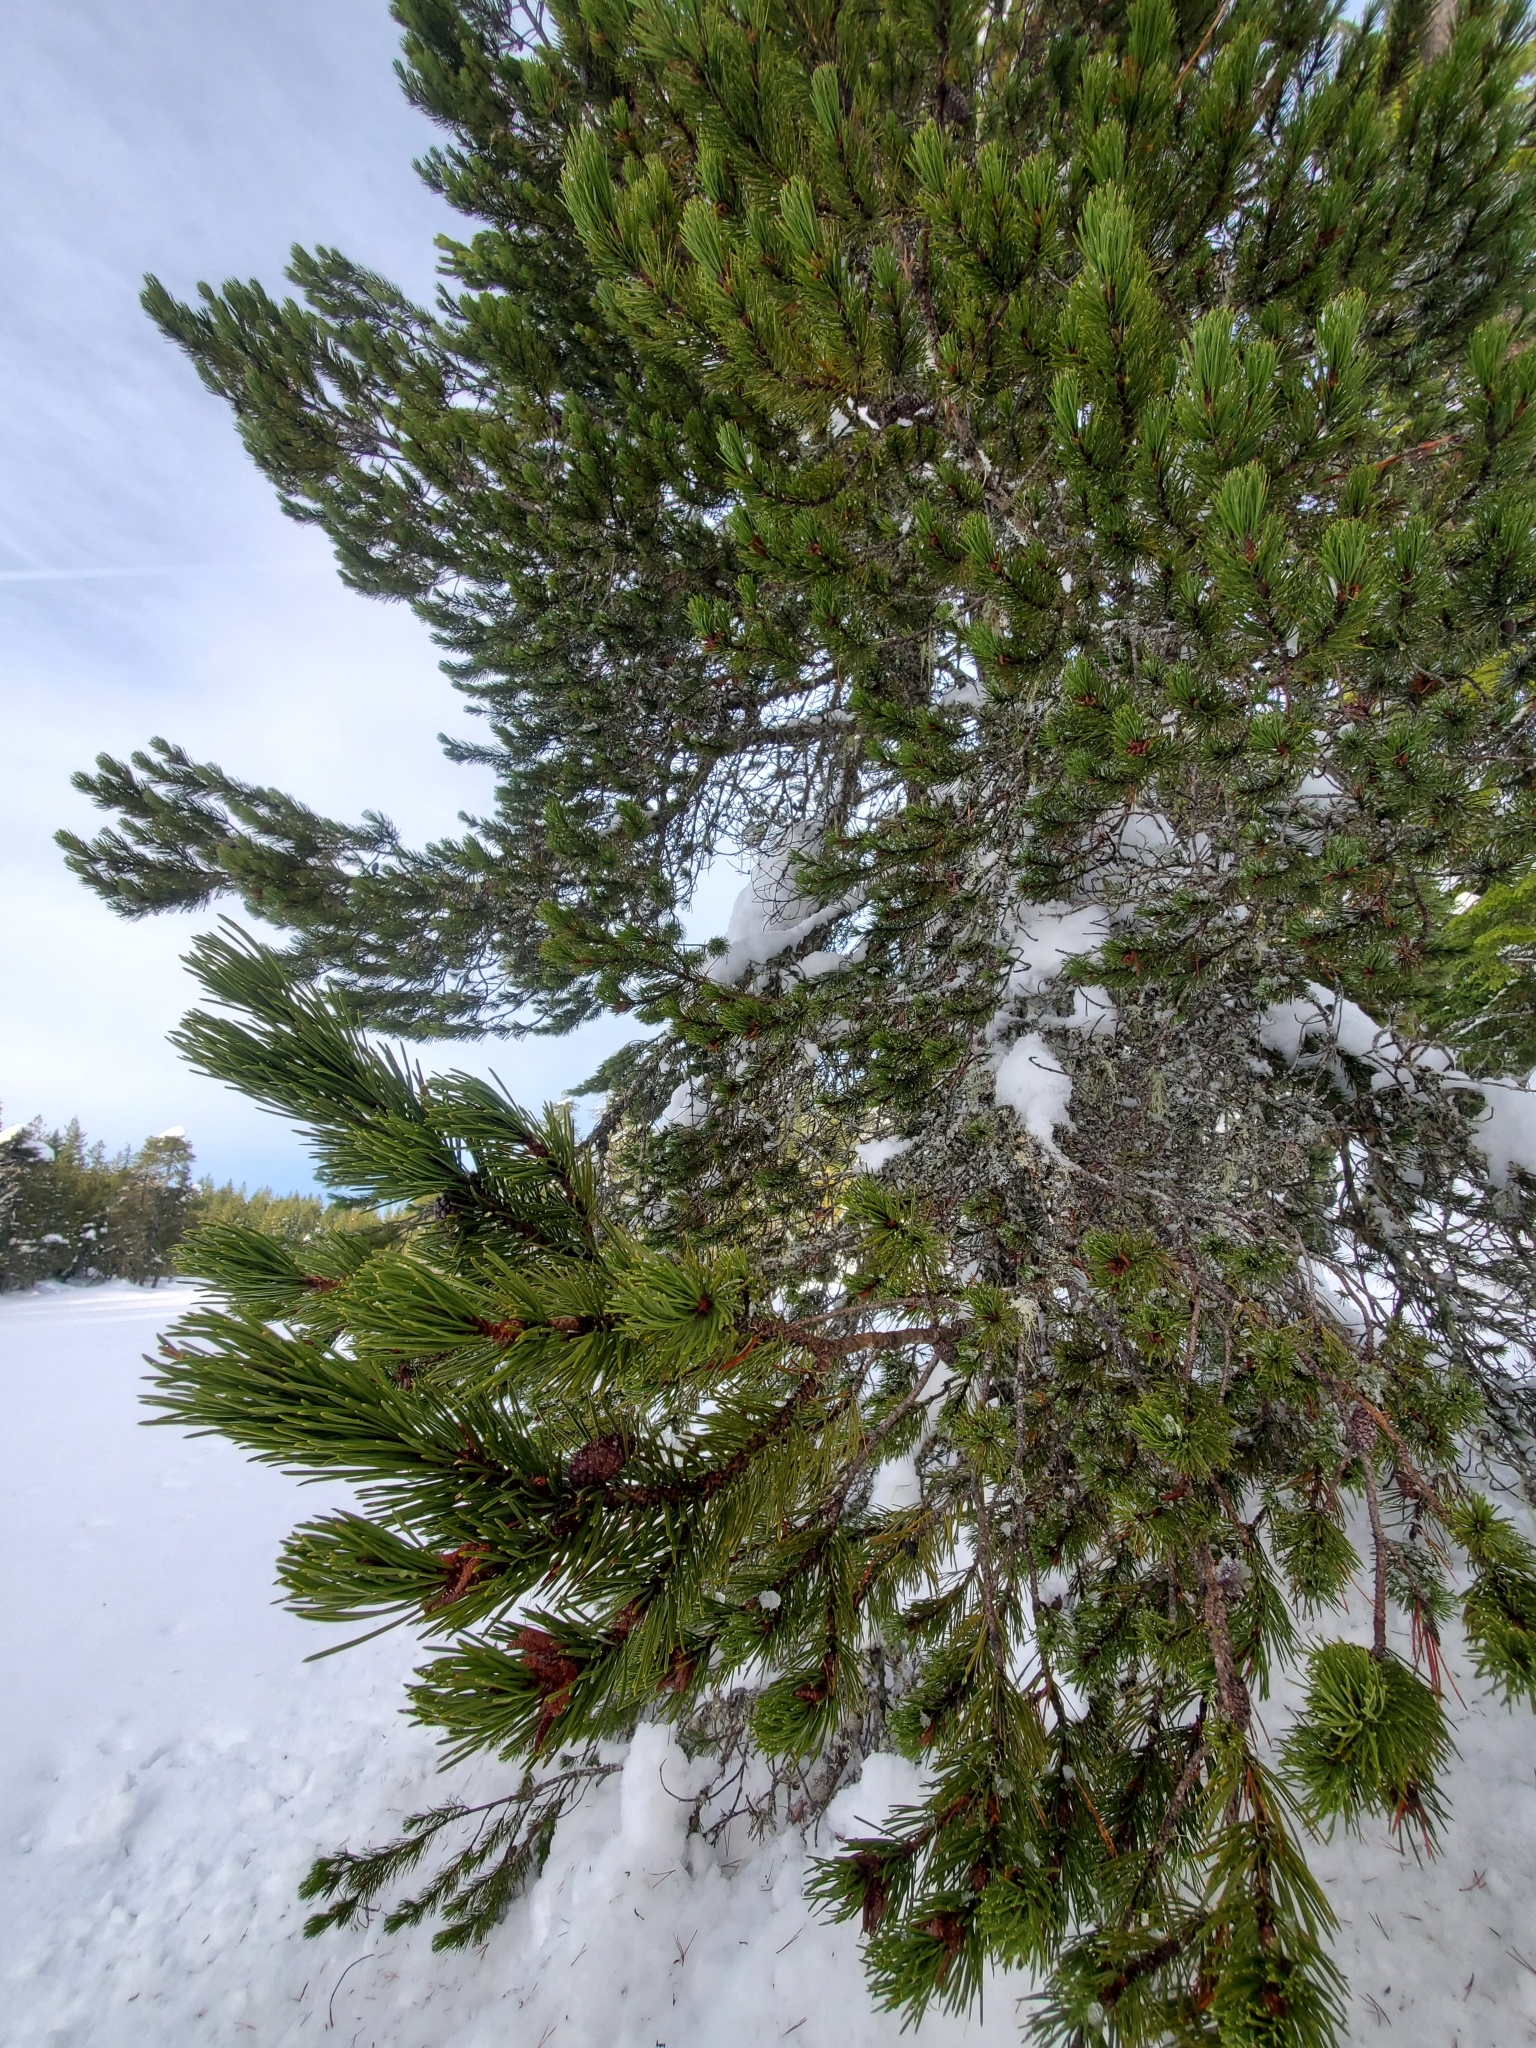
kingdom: Plantae
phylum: Tracheophyta
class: Pinopsida
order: Pinales
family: Pinaceae
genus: Pinus
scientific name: Pinus contorta
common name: Lodgepole pine
